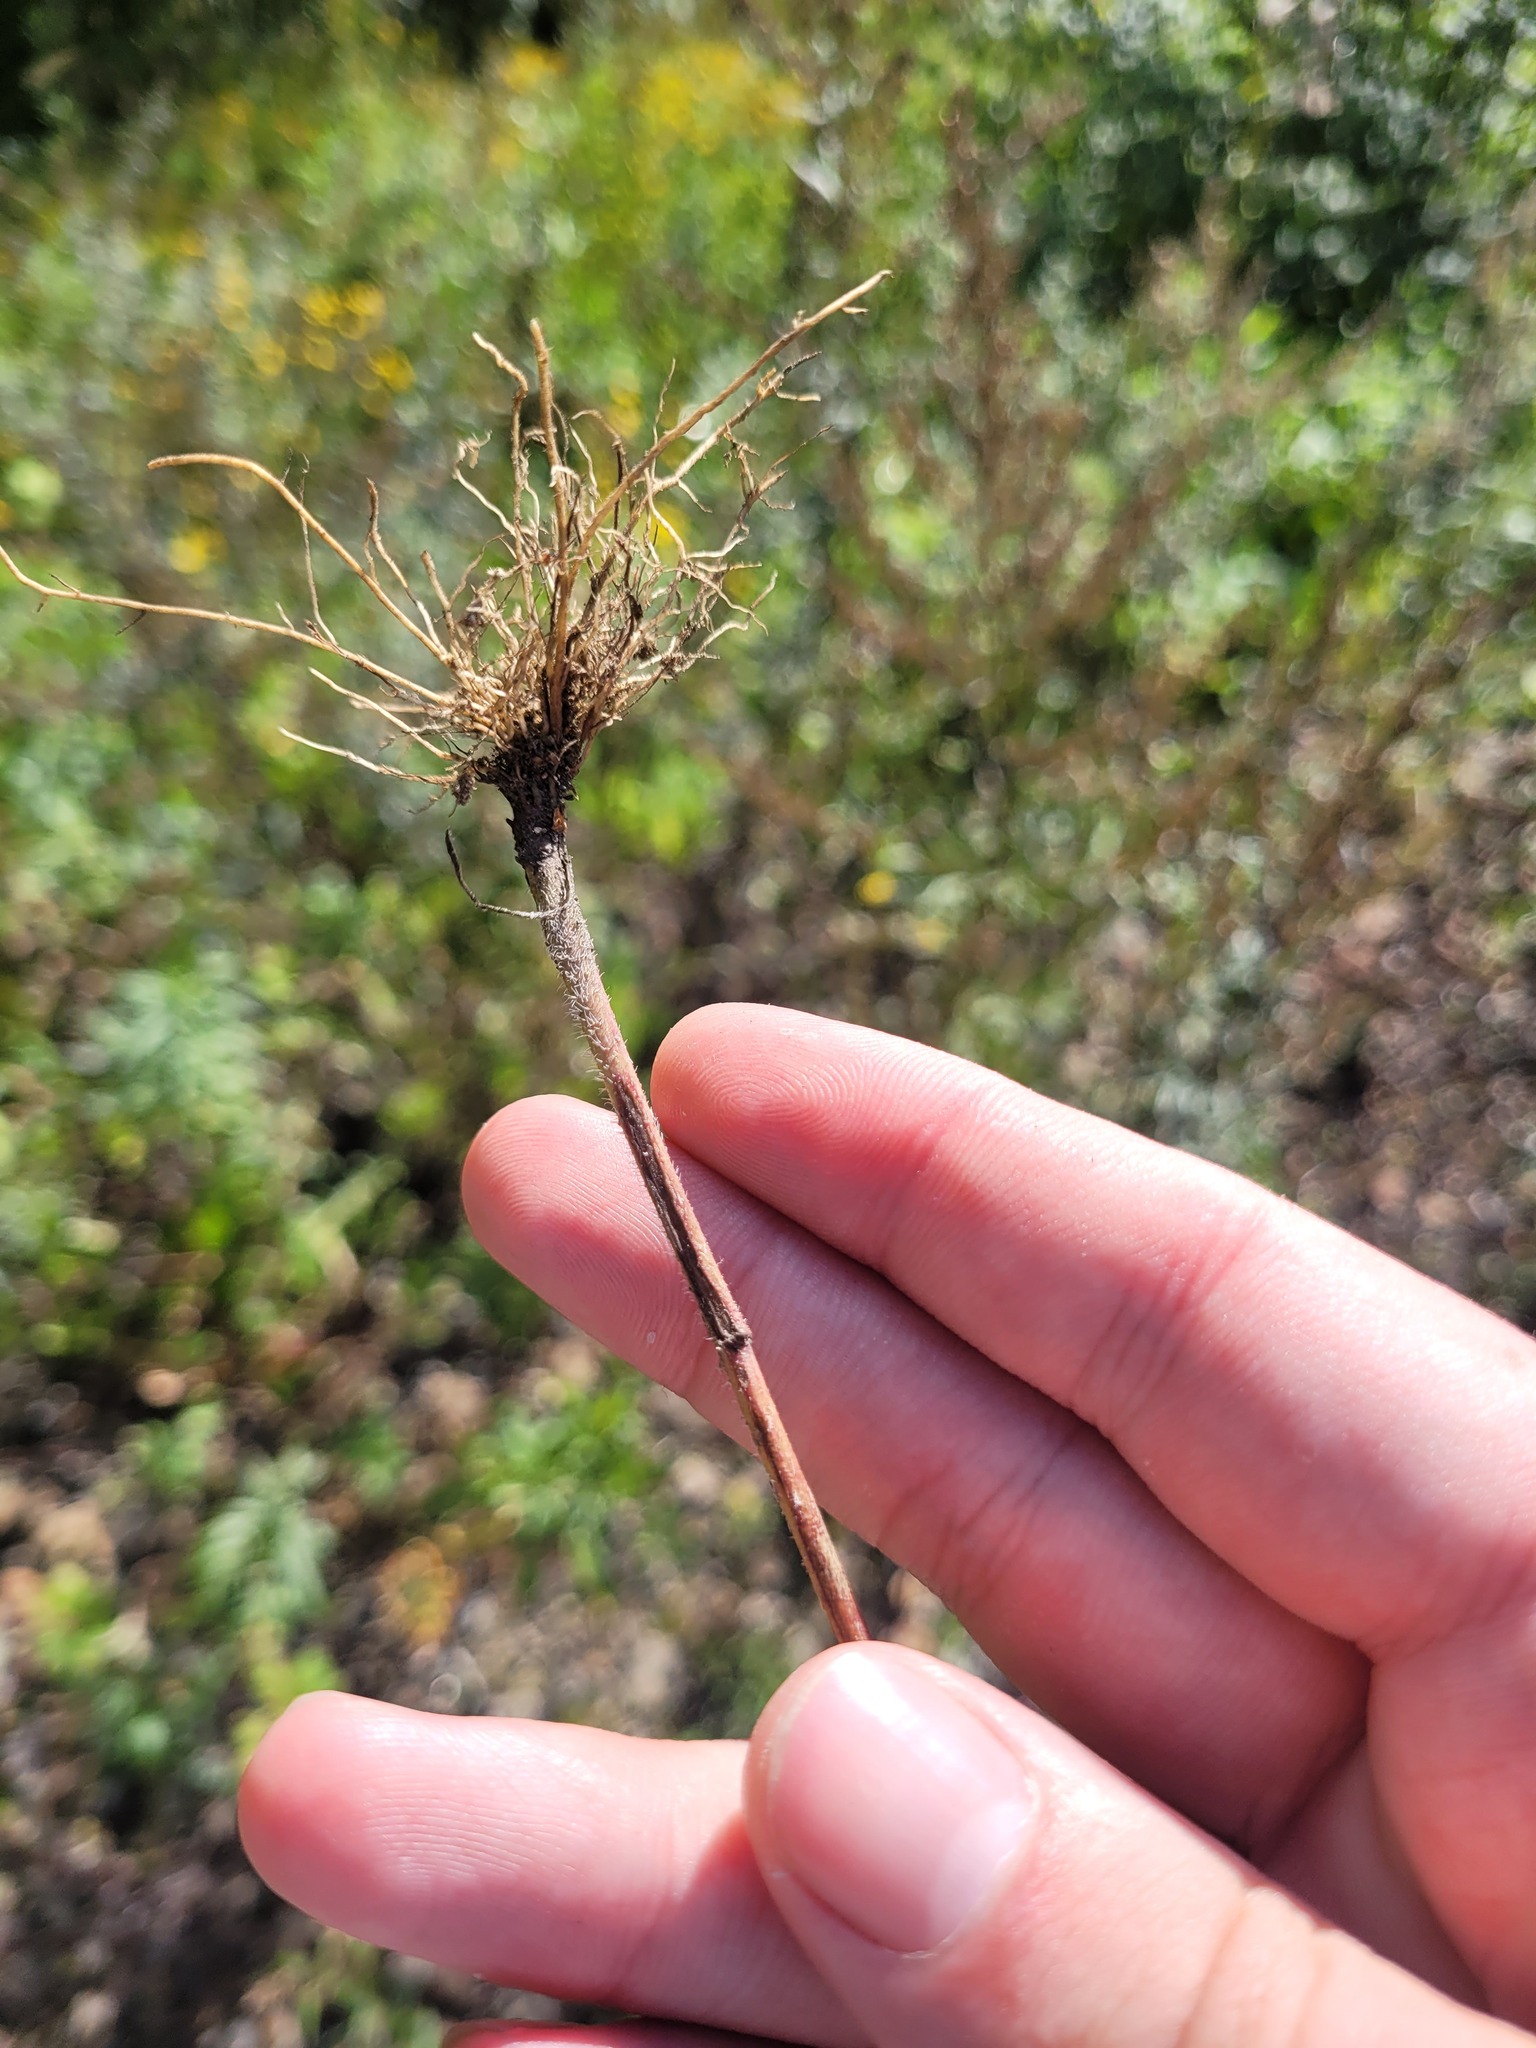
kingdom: Plantae
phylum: Tracheophyta
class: Magnoliopsida
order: Asterales
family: Asteraceae
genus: Erigeron
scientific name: Erigeron annuus
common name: Tall fleabane
